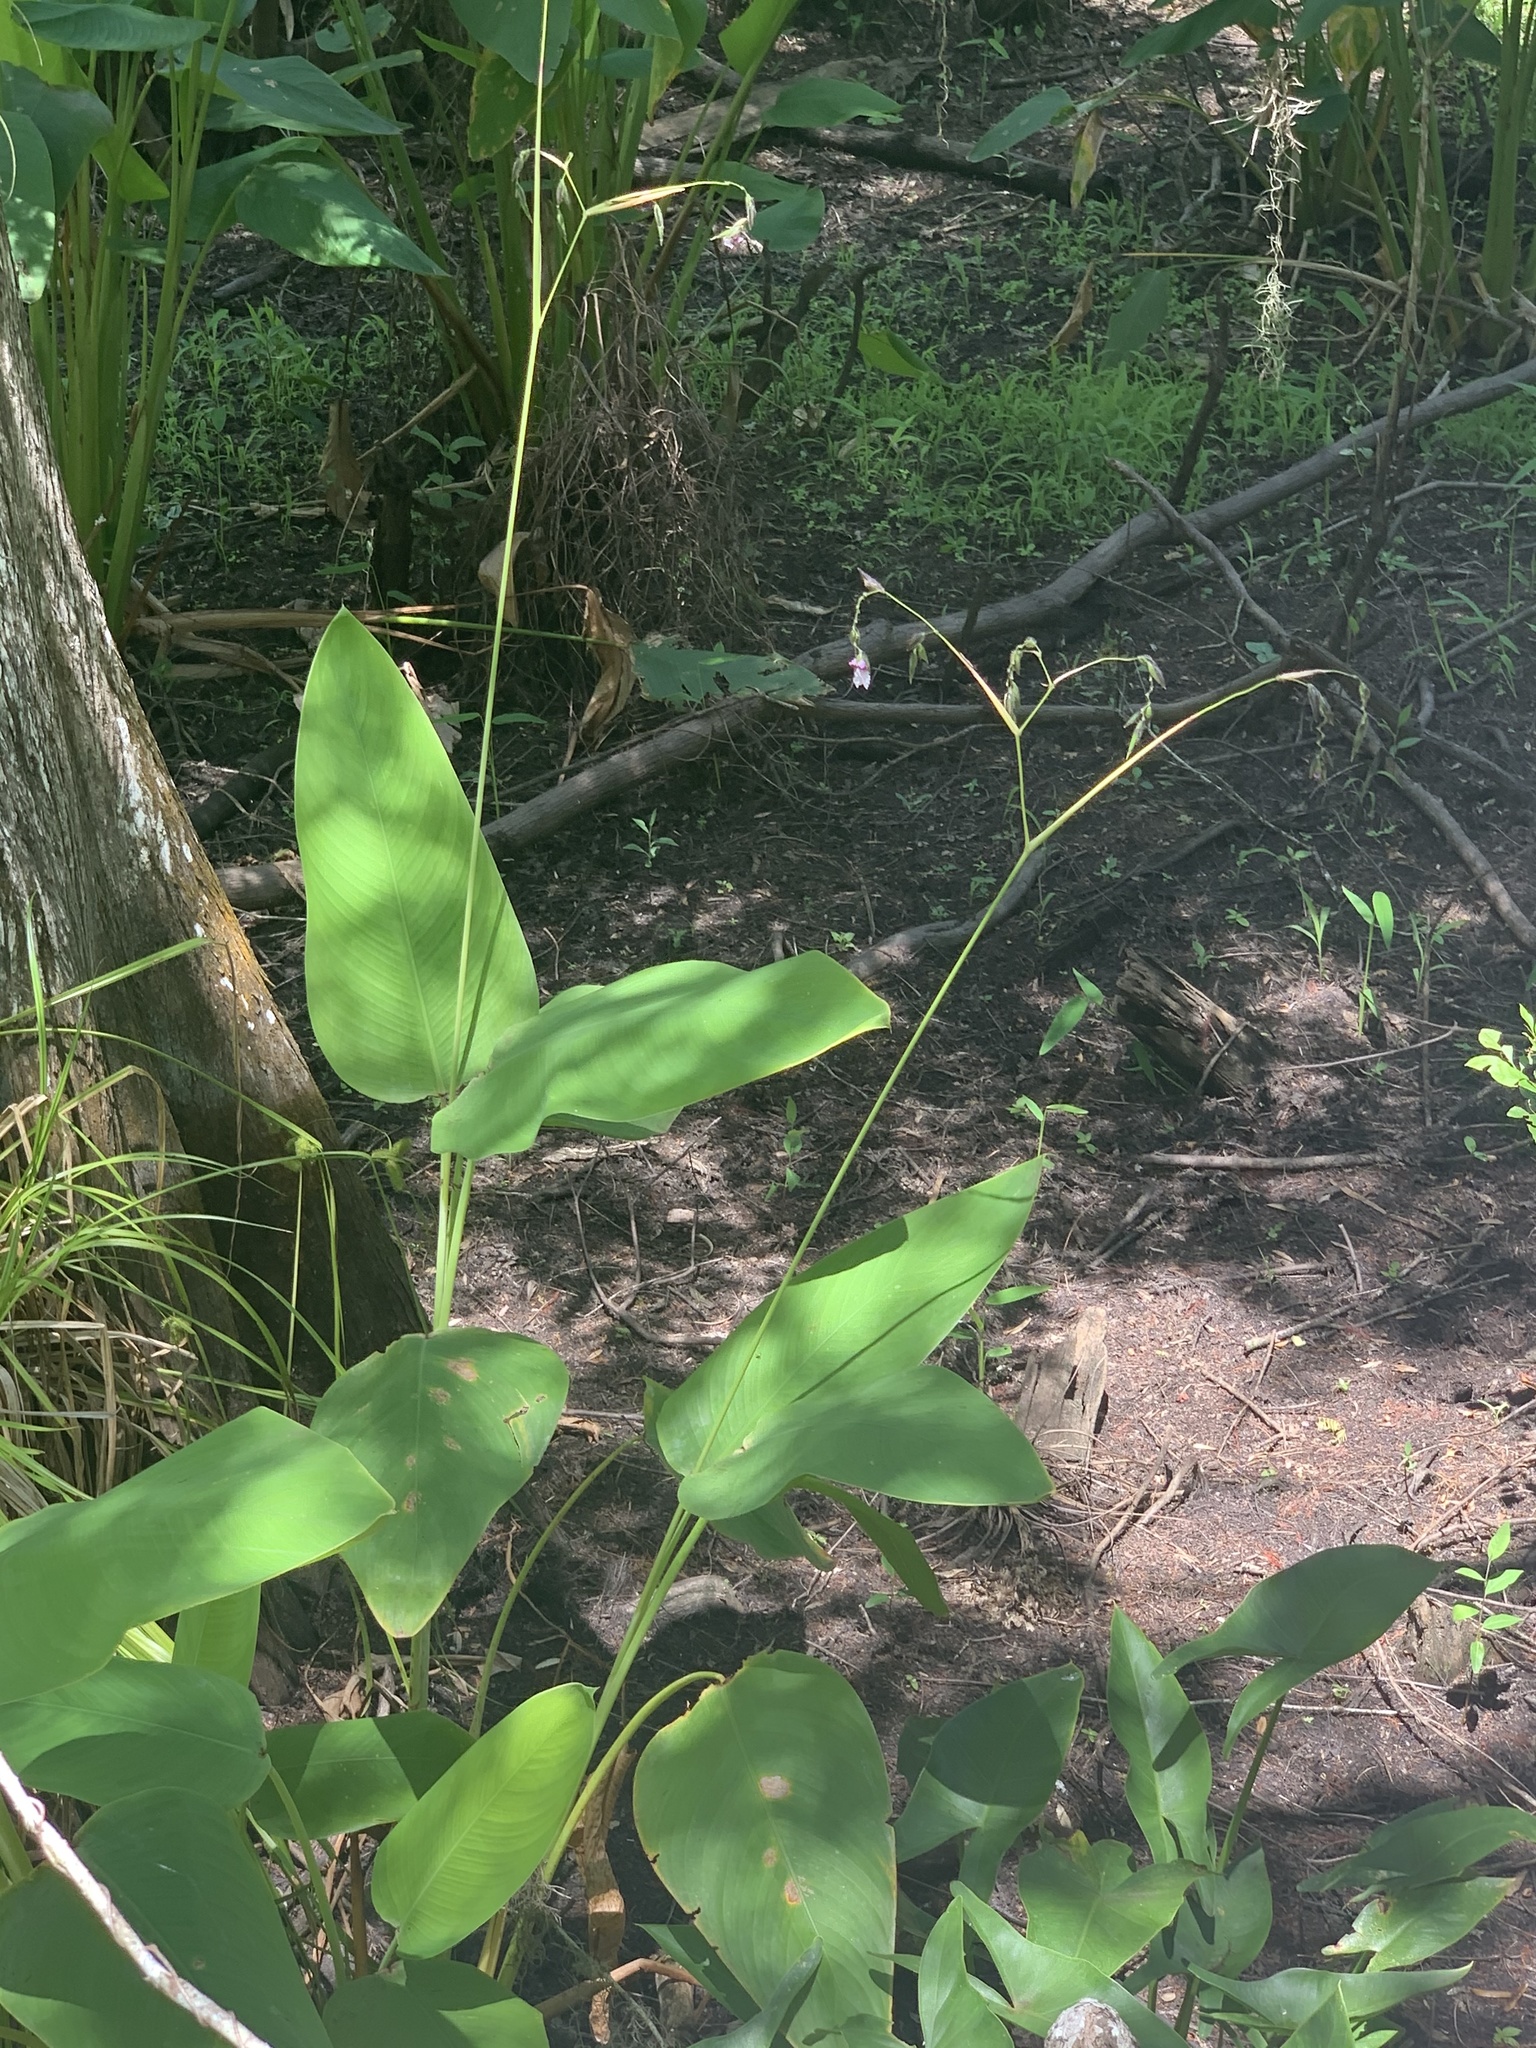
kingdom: Plantae
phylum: Tracheophyta
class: Liliopsida
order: Zingiberales
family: Marantaceae
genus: Thalia
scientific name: Thalia geniculata
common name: Arrowroot
